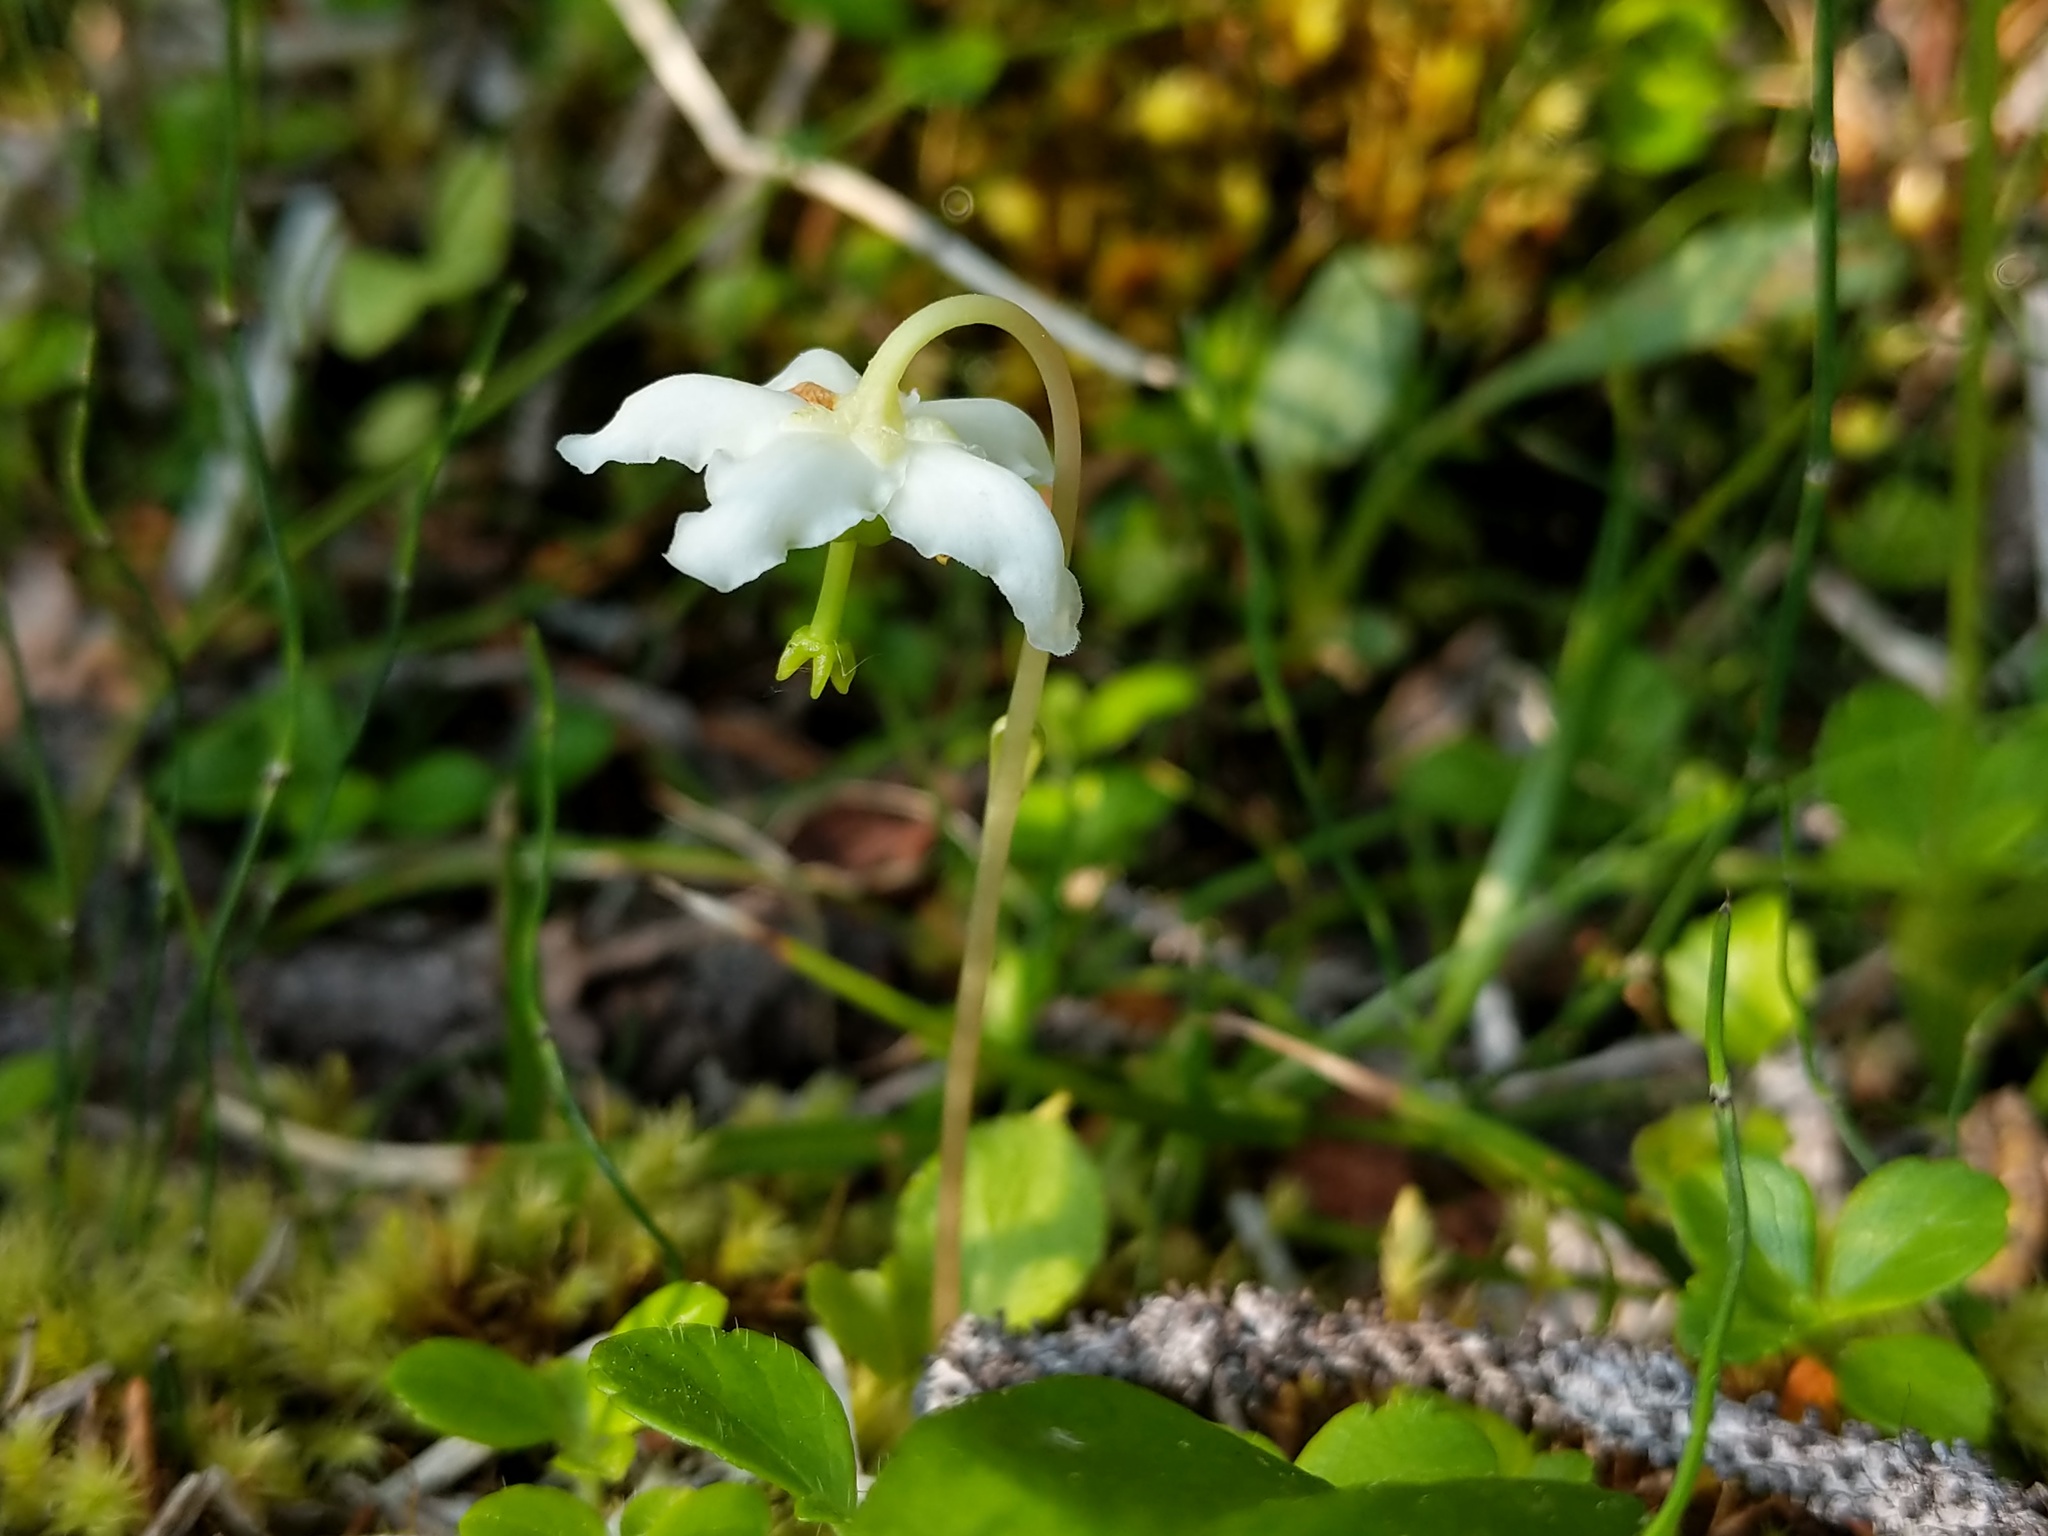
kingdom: Plantae
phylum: Tracheophyta
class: Magnoliopsida
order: Ericales
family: Ericaceae
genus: Moneses
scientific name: Moneses uniflora
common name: One-flowered wintergreen
